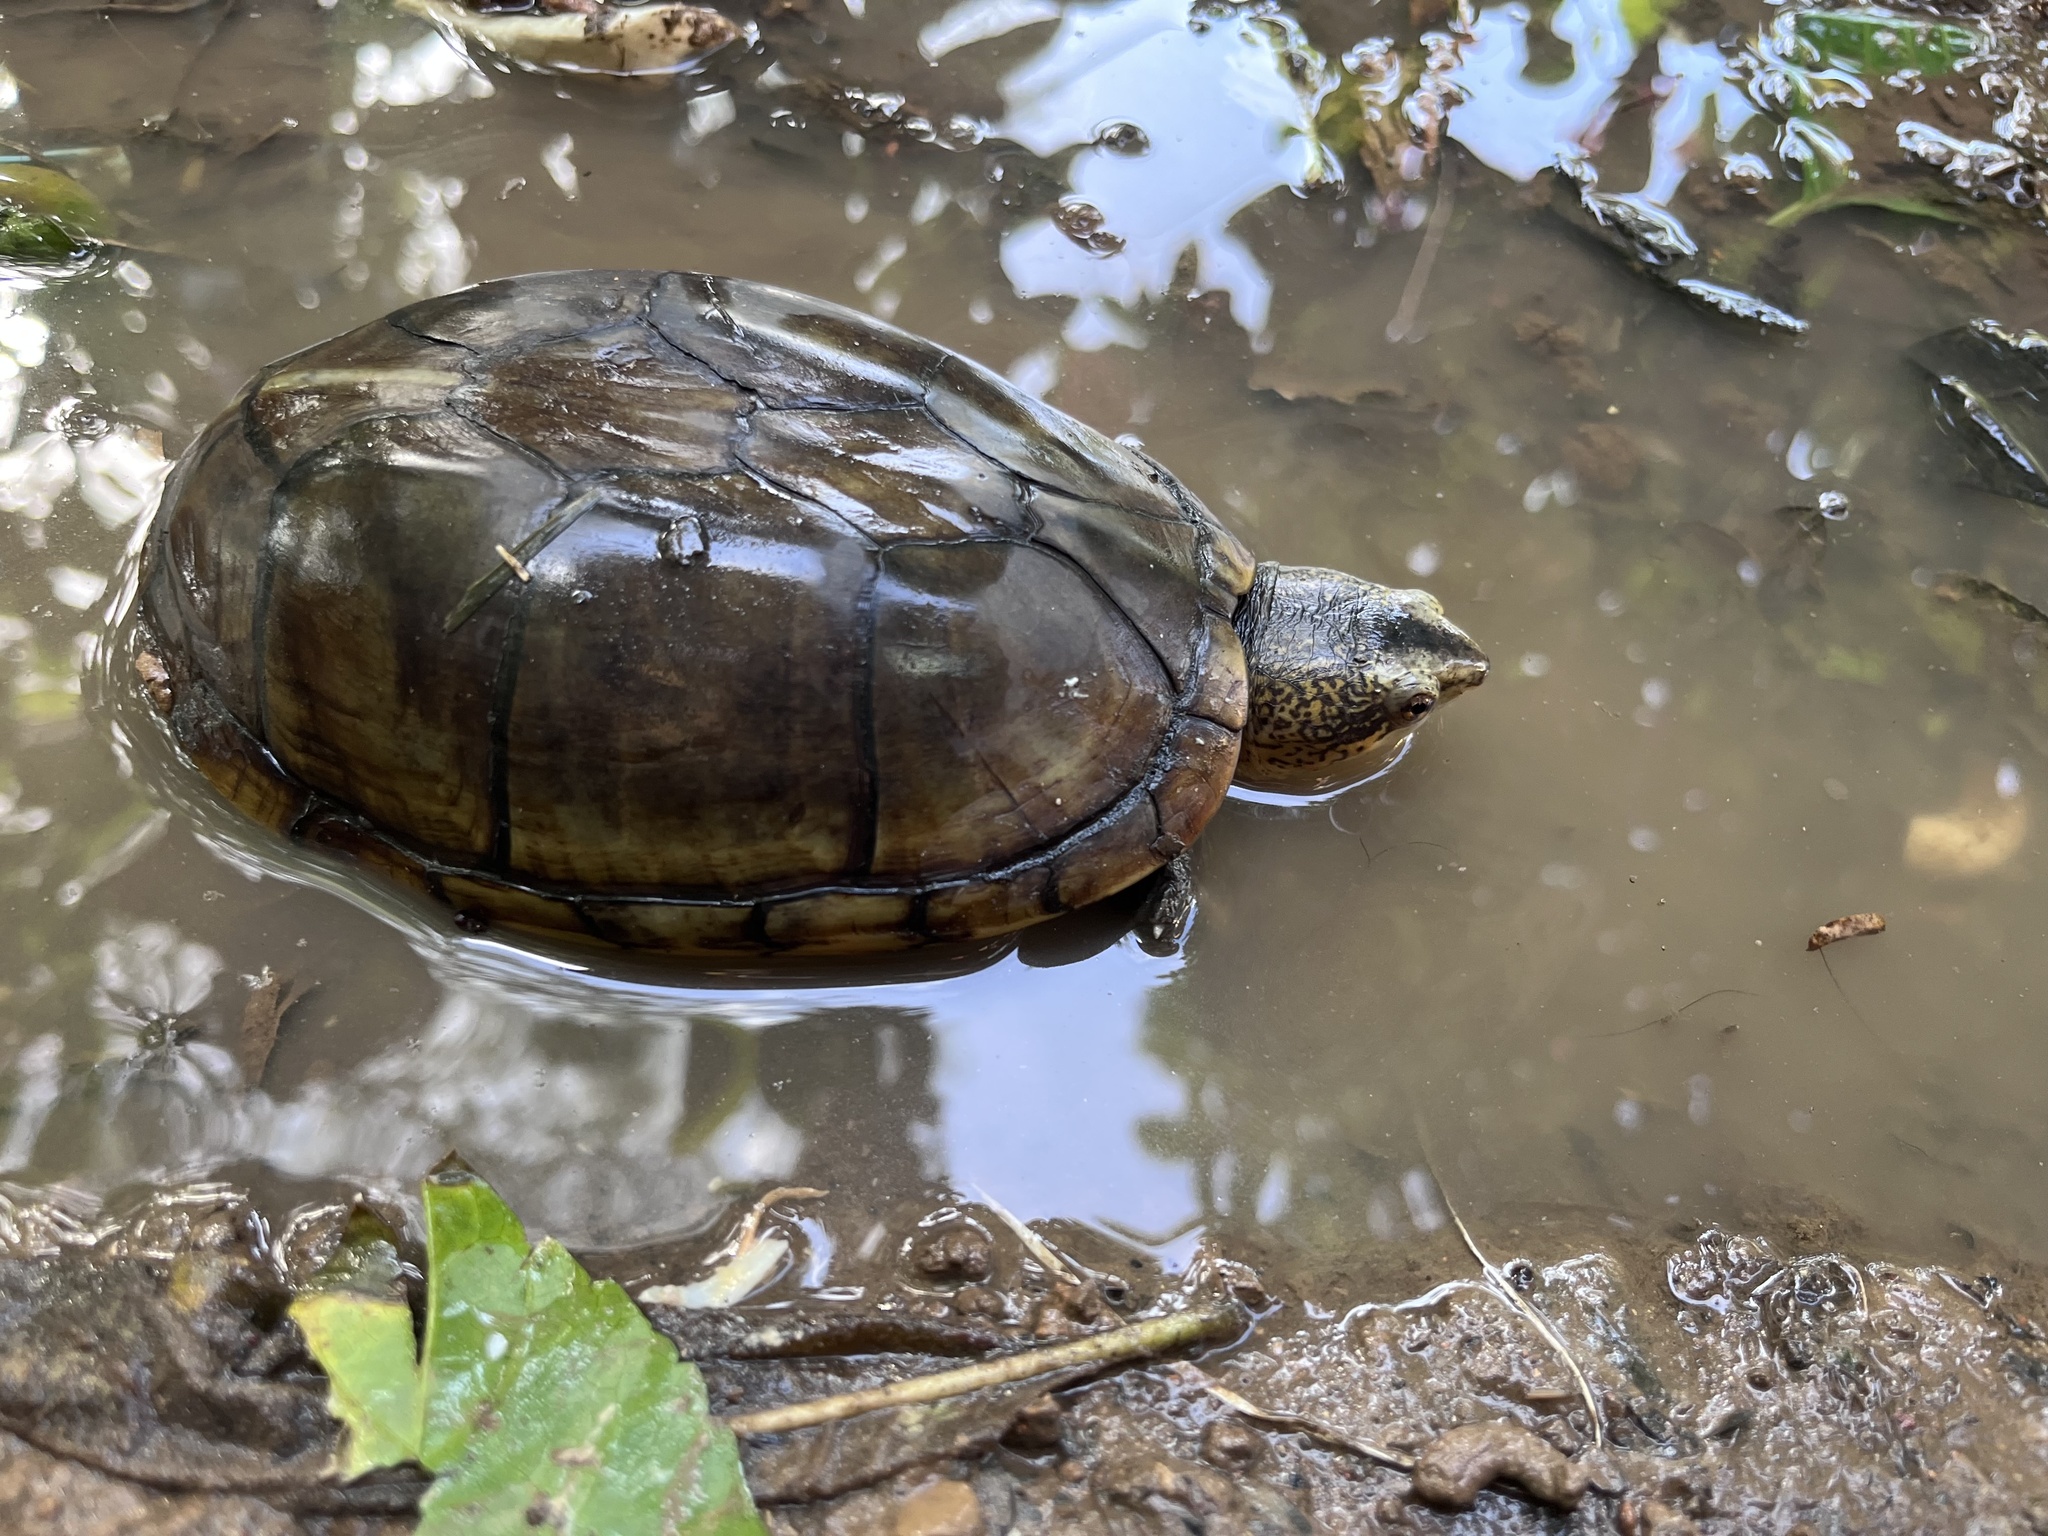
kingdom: Animalia
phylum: Chordata
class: Testudines
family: Kinosternidae
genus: Kinosternon
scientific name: Kinosternon leucostomum
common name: White-lipped mud turtle
